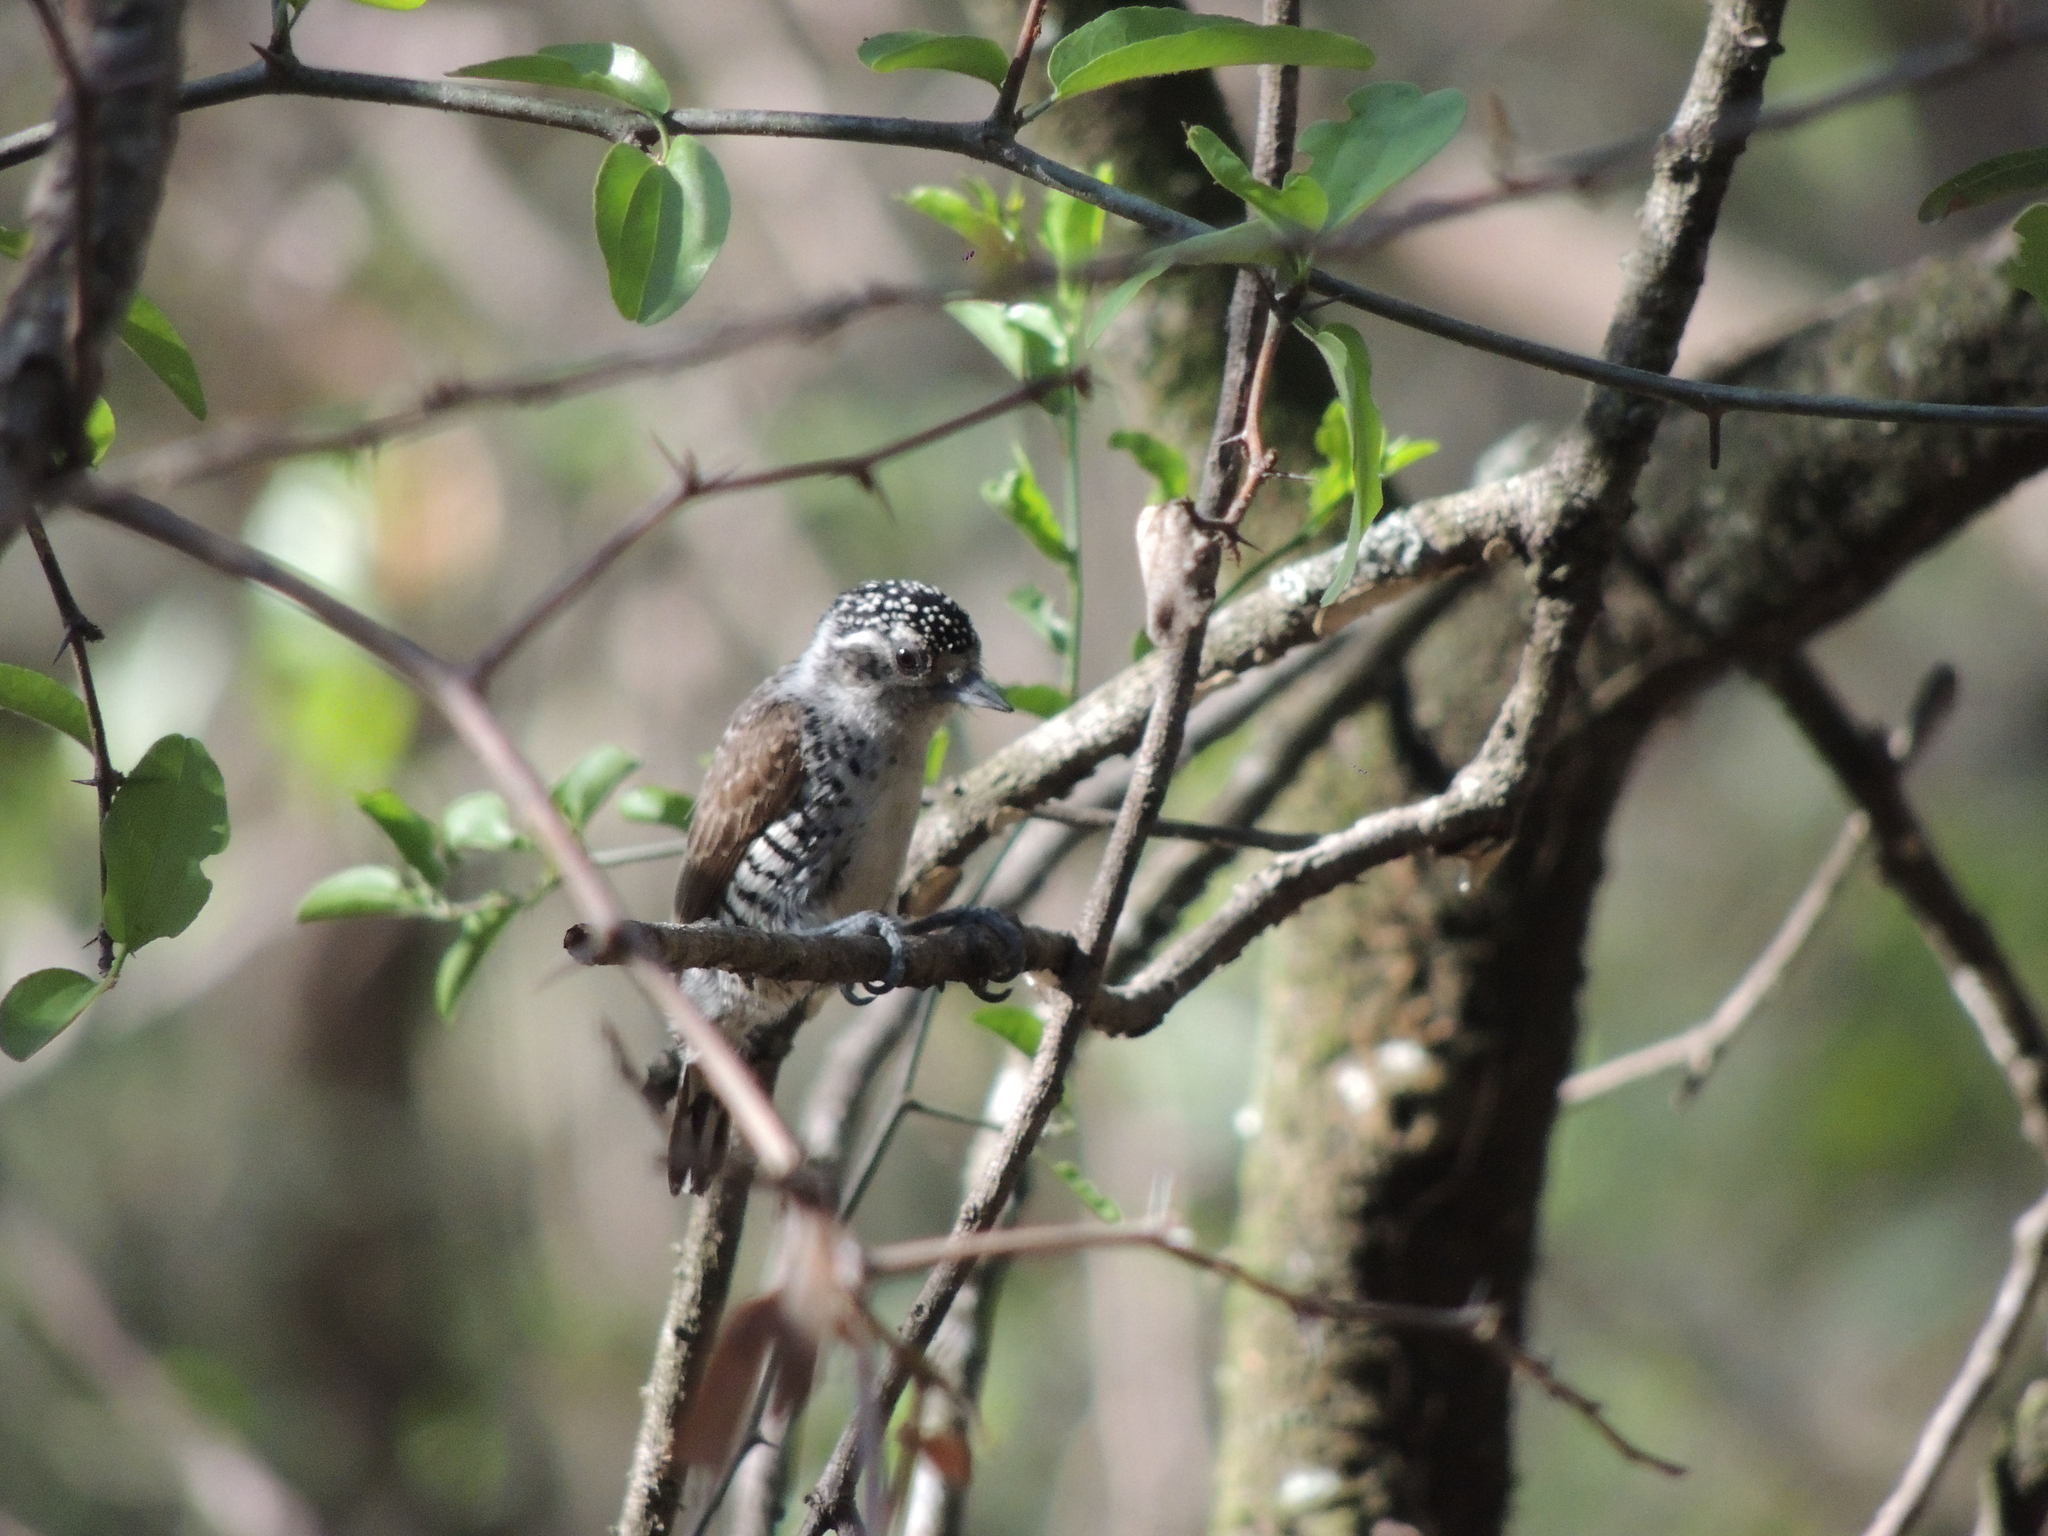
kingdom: Animalia
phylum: Chordata
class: Aves
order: Piciformes
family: Picidae
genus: Picumnus
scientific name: Picumnus cirratus
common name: White-barred piculet
